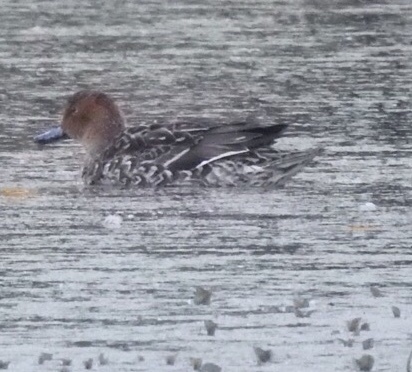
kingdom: Animalia
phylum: Chordata
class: Aves
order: Anseriformes
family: Anatidae
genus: Anas
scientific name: Anas acuta
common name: Northern pintail
